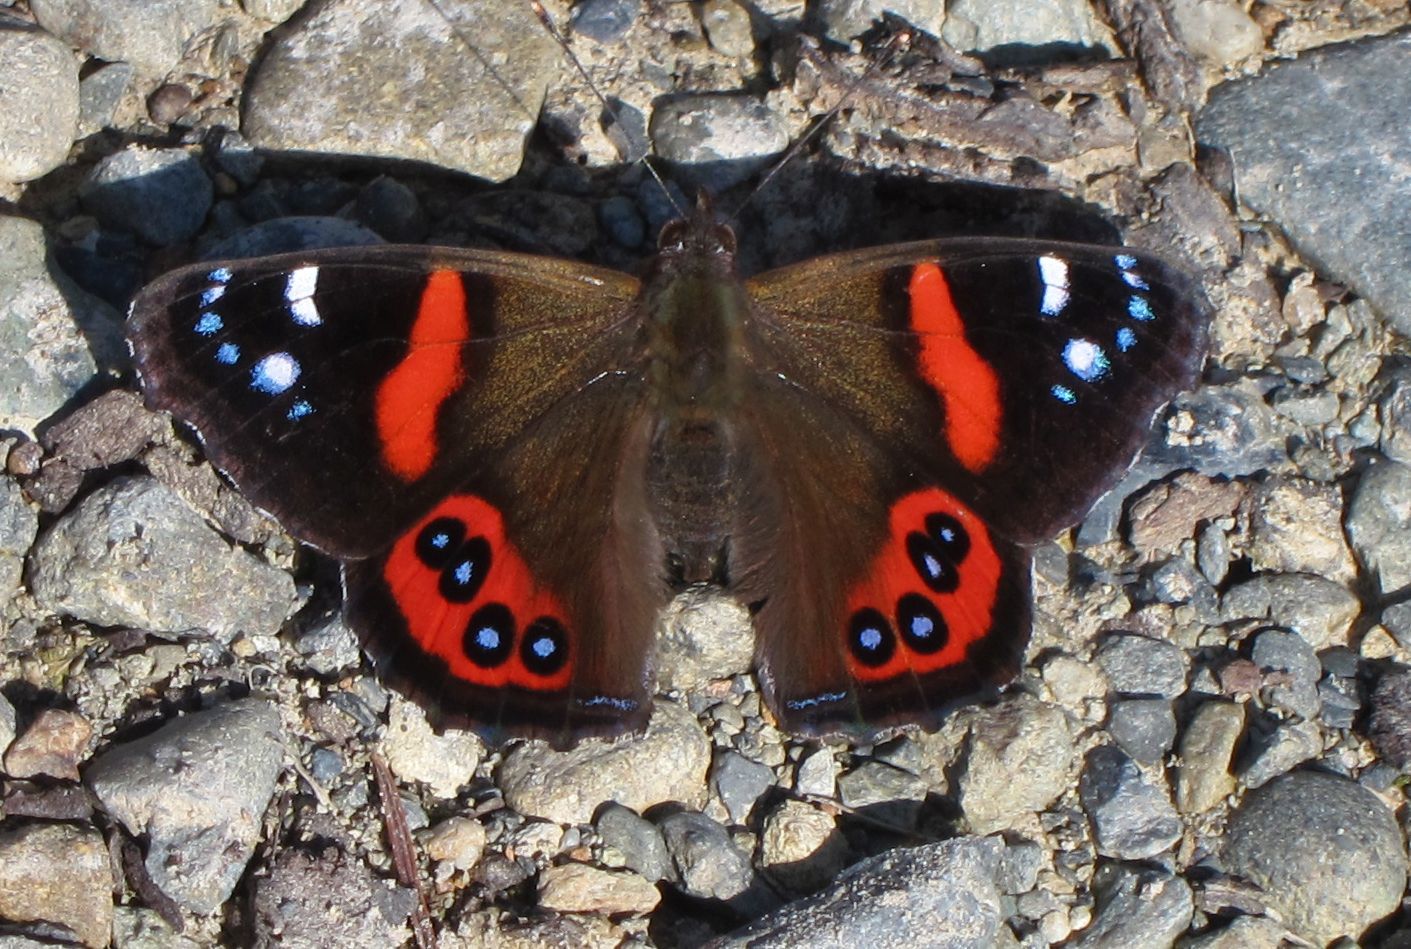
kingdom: Animalia
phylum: Arthropoda
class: Insecta
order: Lepidoptera
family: Nymphalidae
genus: Vanessa
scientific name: Vanessa gonerilla
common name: New zealand red admiral
